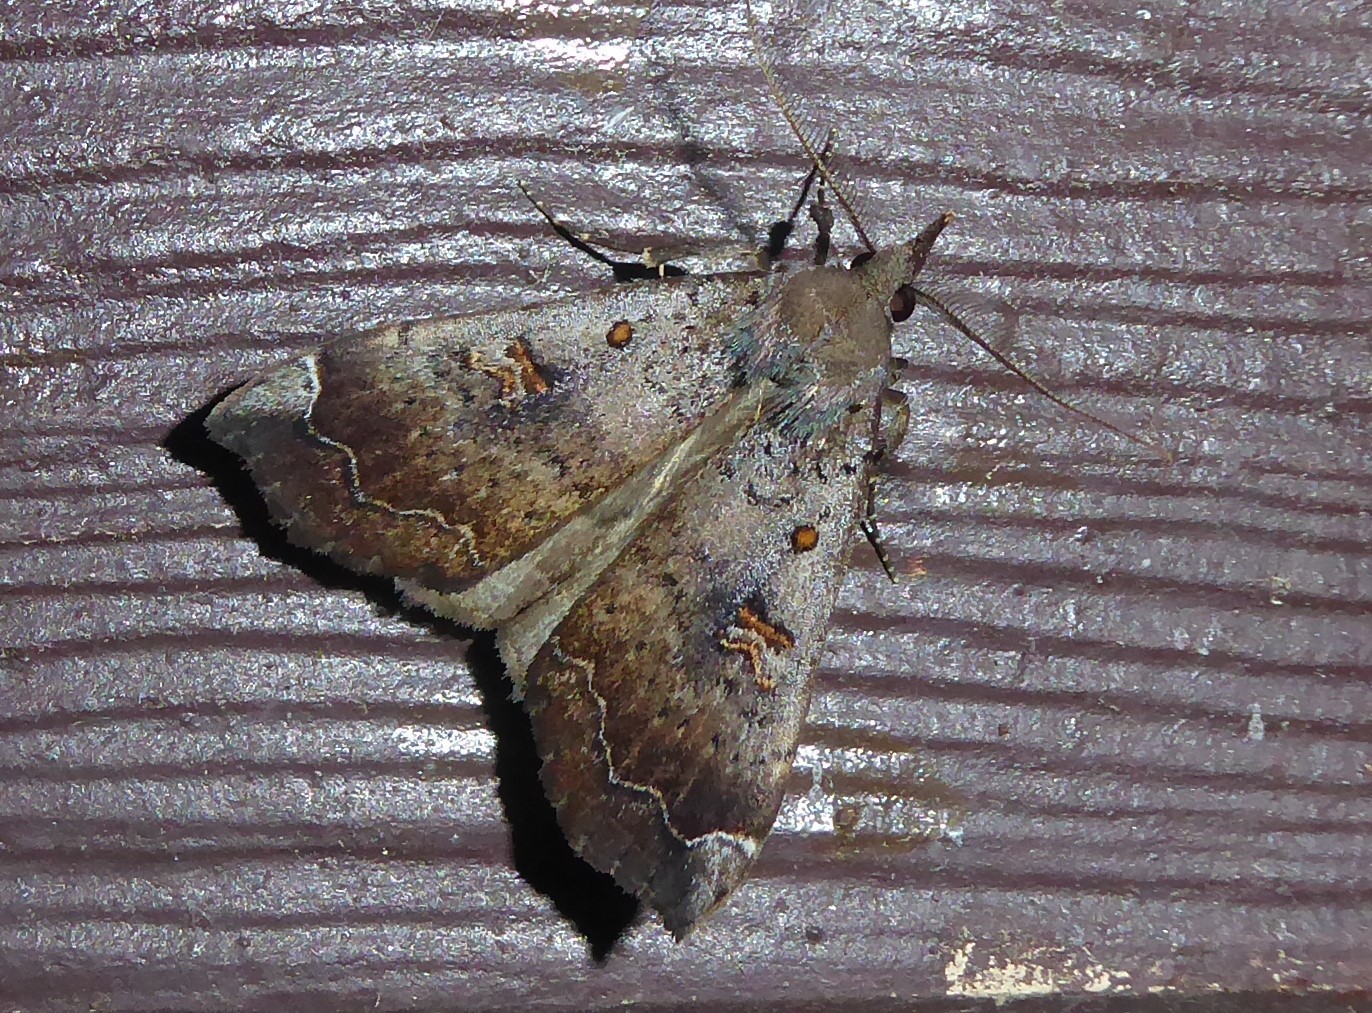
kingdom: Animalia
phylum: Arthropoda
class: Insecta
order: Lepidoptera
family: Erebidae
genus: Rhapsa
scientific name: Rhapsa scotosialis
